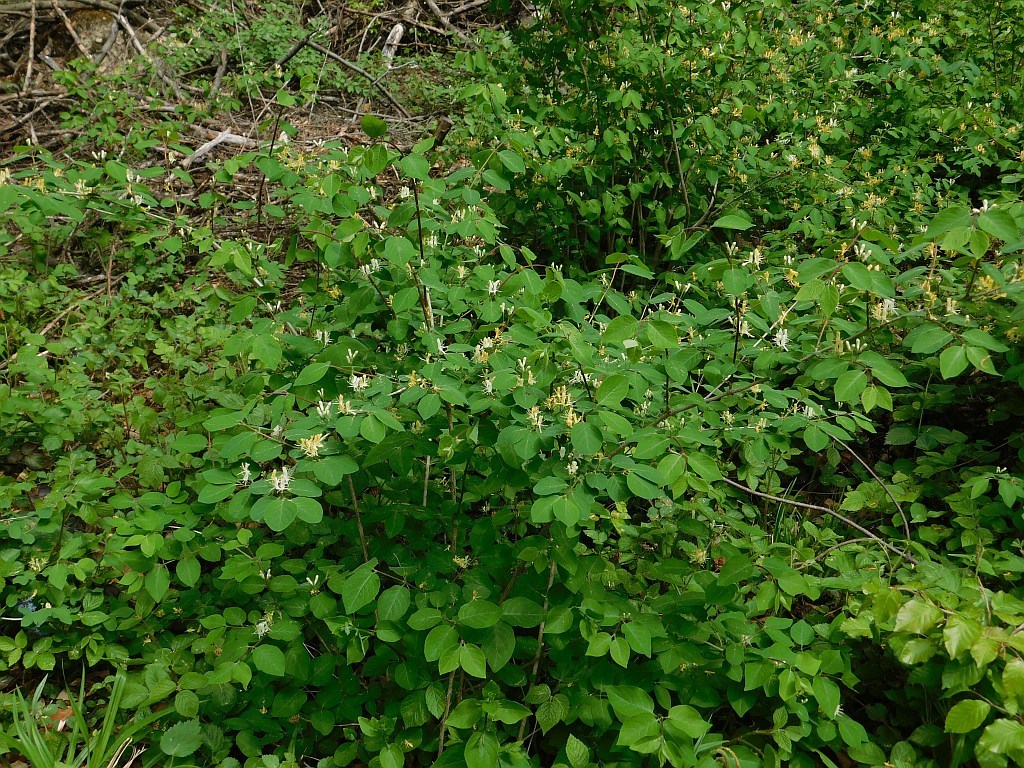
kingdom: Plantae
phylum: Tracheophyta
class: Magnoliopsida
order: Dipsacales
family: Caprifoliaceae
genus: Lonicera
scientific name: Lonicera xylosteum
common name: Fly honeysuckle
